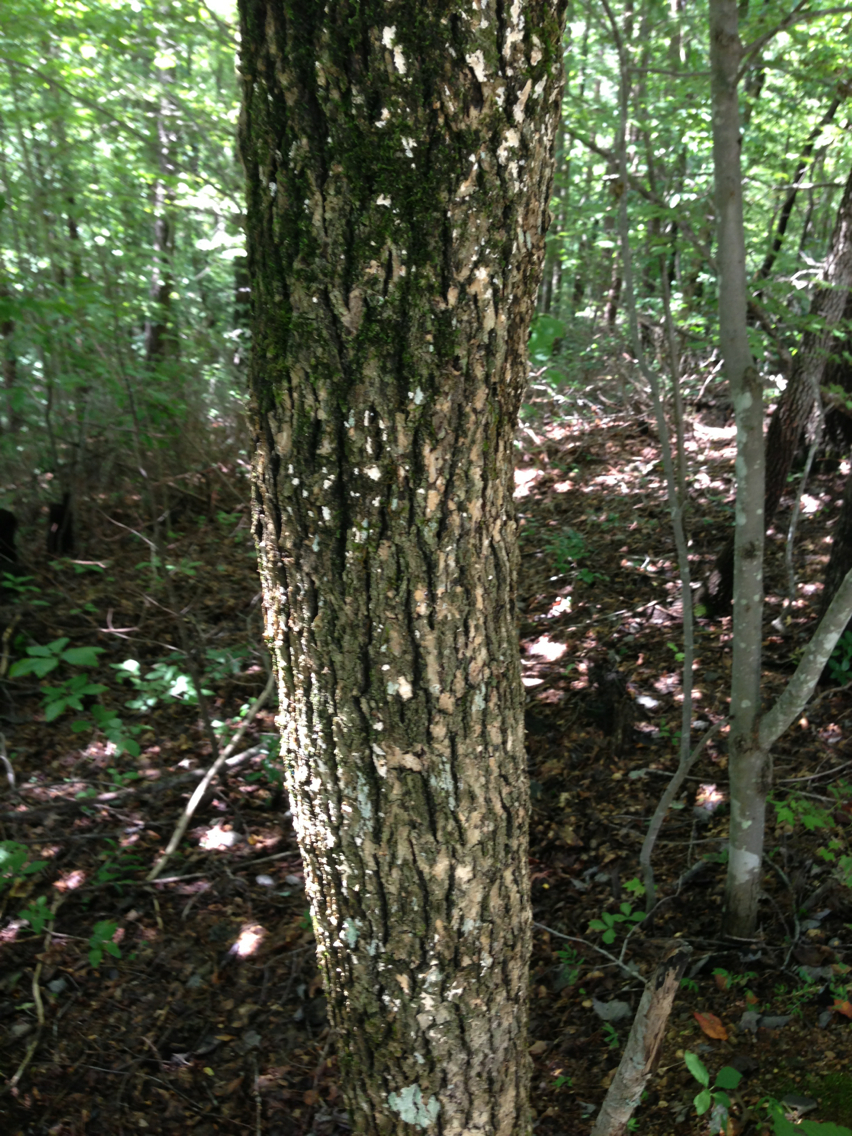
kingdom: Plantae
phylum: Tracheophyta
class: Magnoliopsida
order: Cornales
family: Nyssaceae
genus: Nyssa
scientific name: Nyssa sylvatica
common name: Black tupelo
